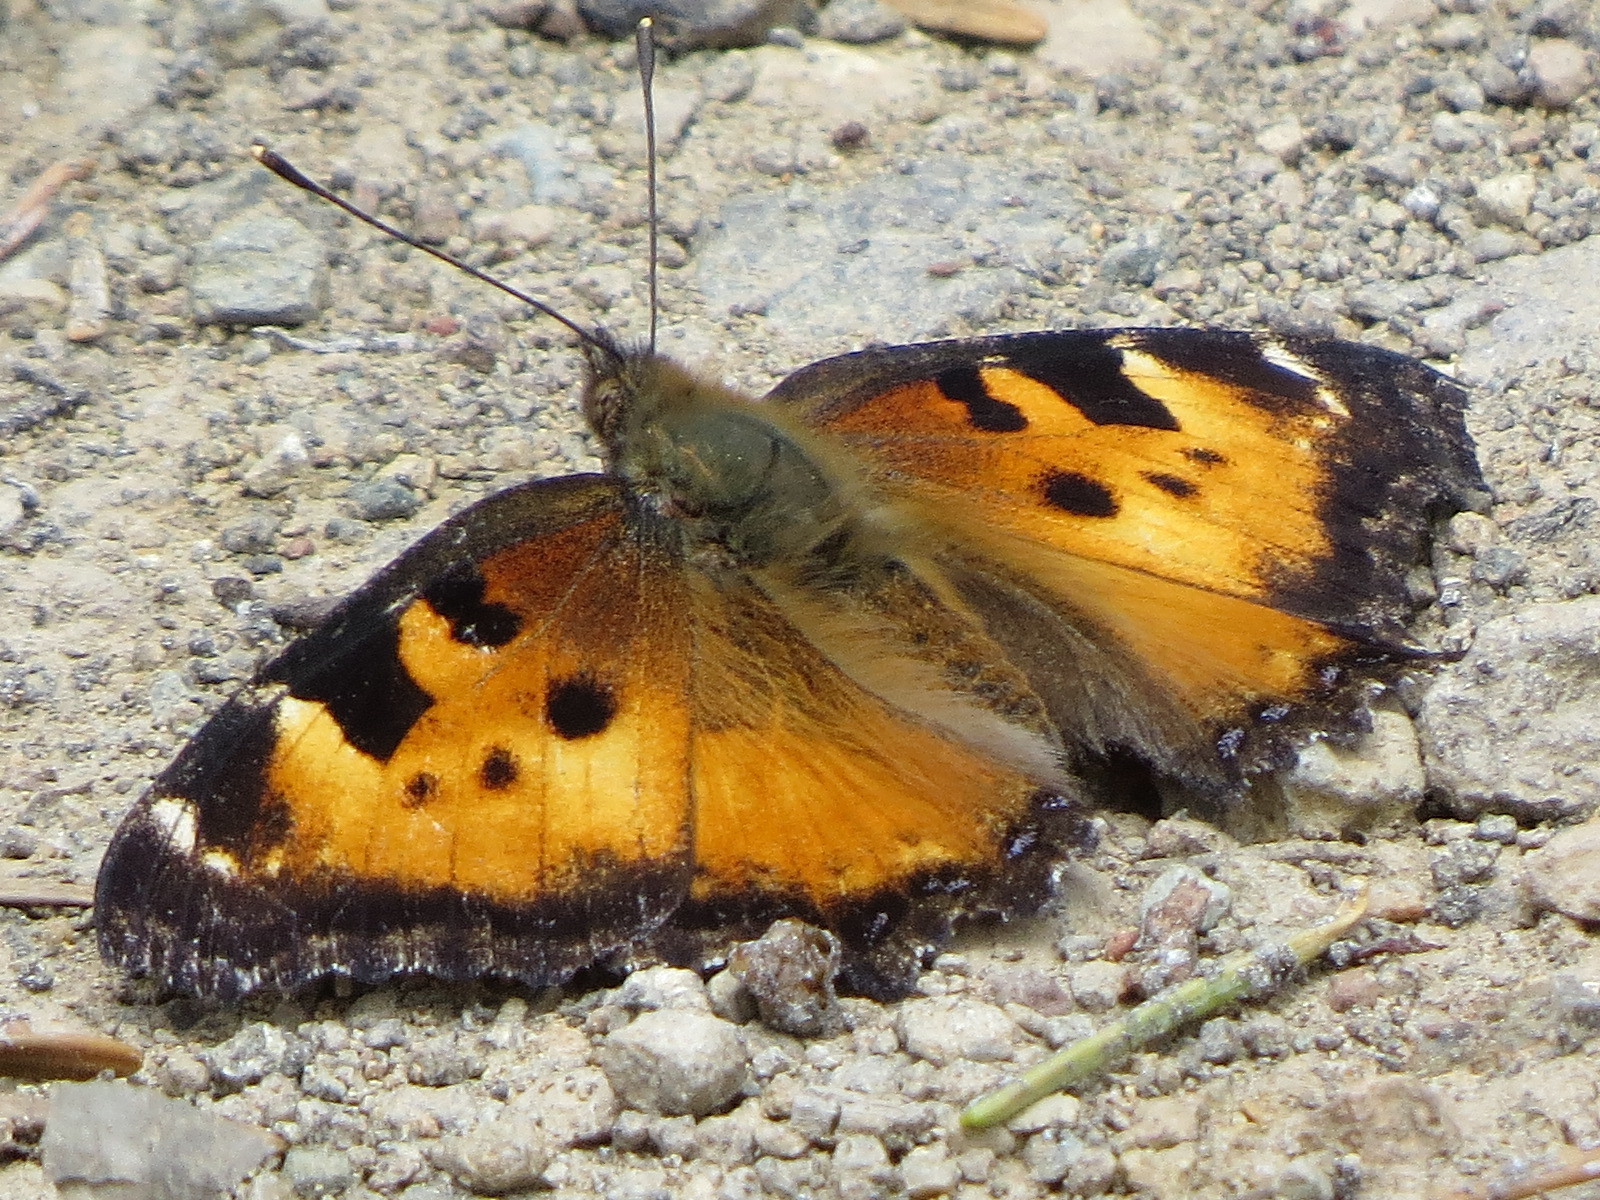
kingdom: Animalia
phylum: Arthropoda
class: Insecta
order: Lepidoptera
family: Nymphalidae
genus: Nymphalis
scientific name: Nymphalis californica
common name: California tortoiseshell
